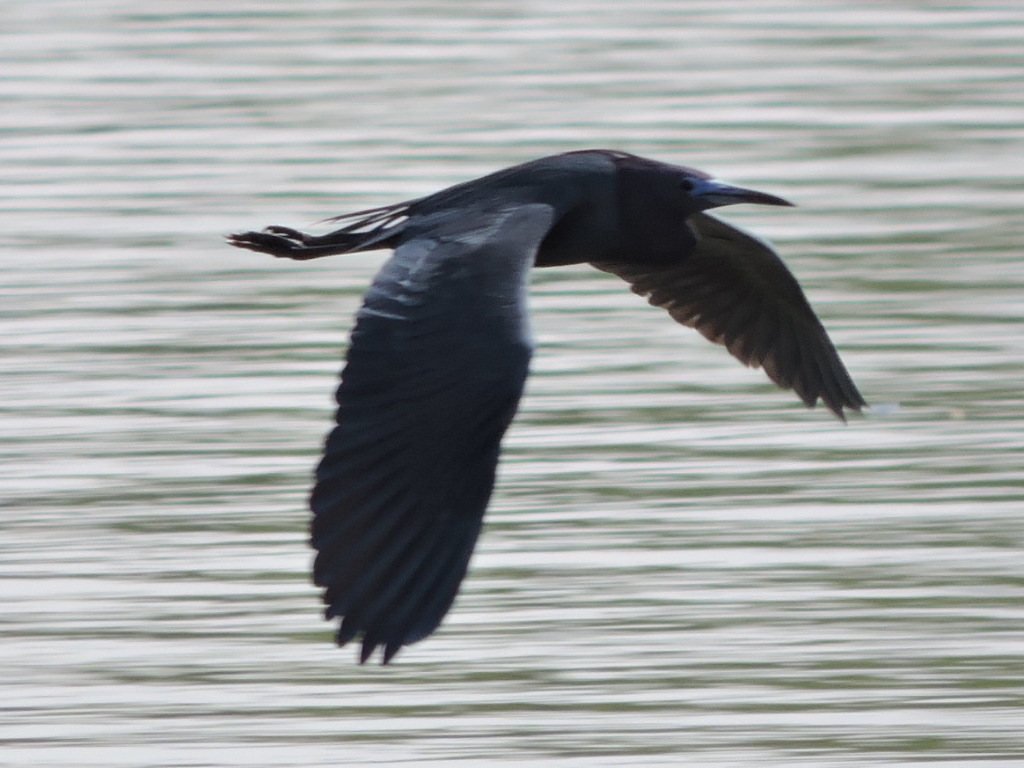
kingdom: Animalia
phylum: Chordata
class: Aves
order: Pelecaniformes
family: Ardeidae
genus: Egretta
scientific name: Egretta caerulea
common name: Little blue heron
